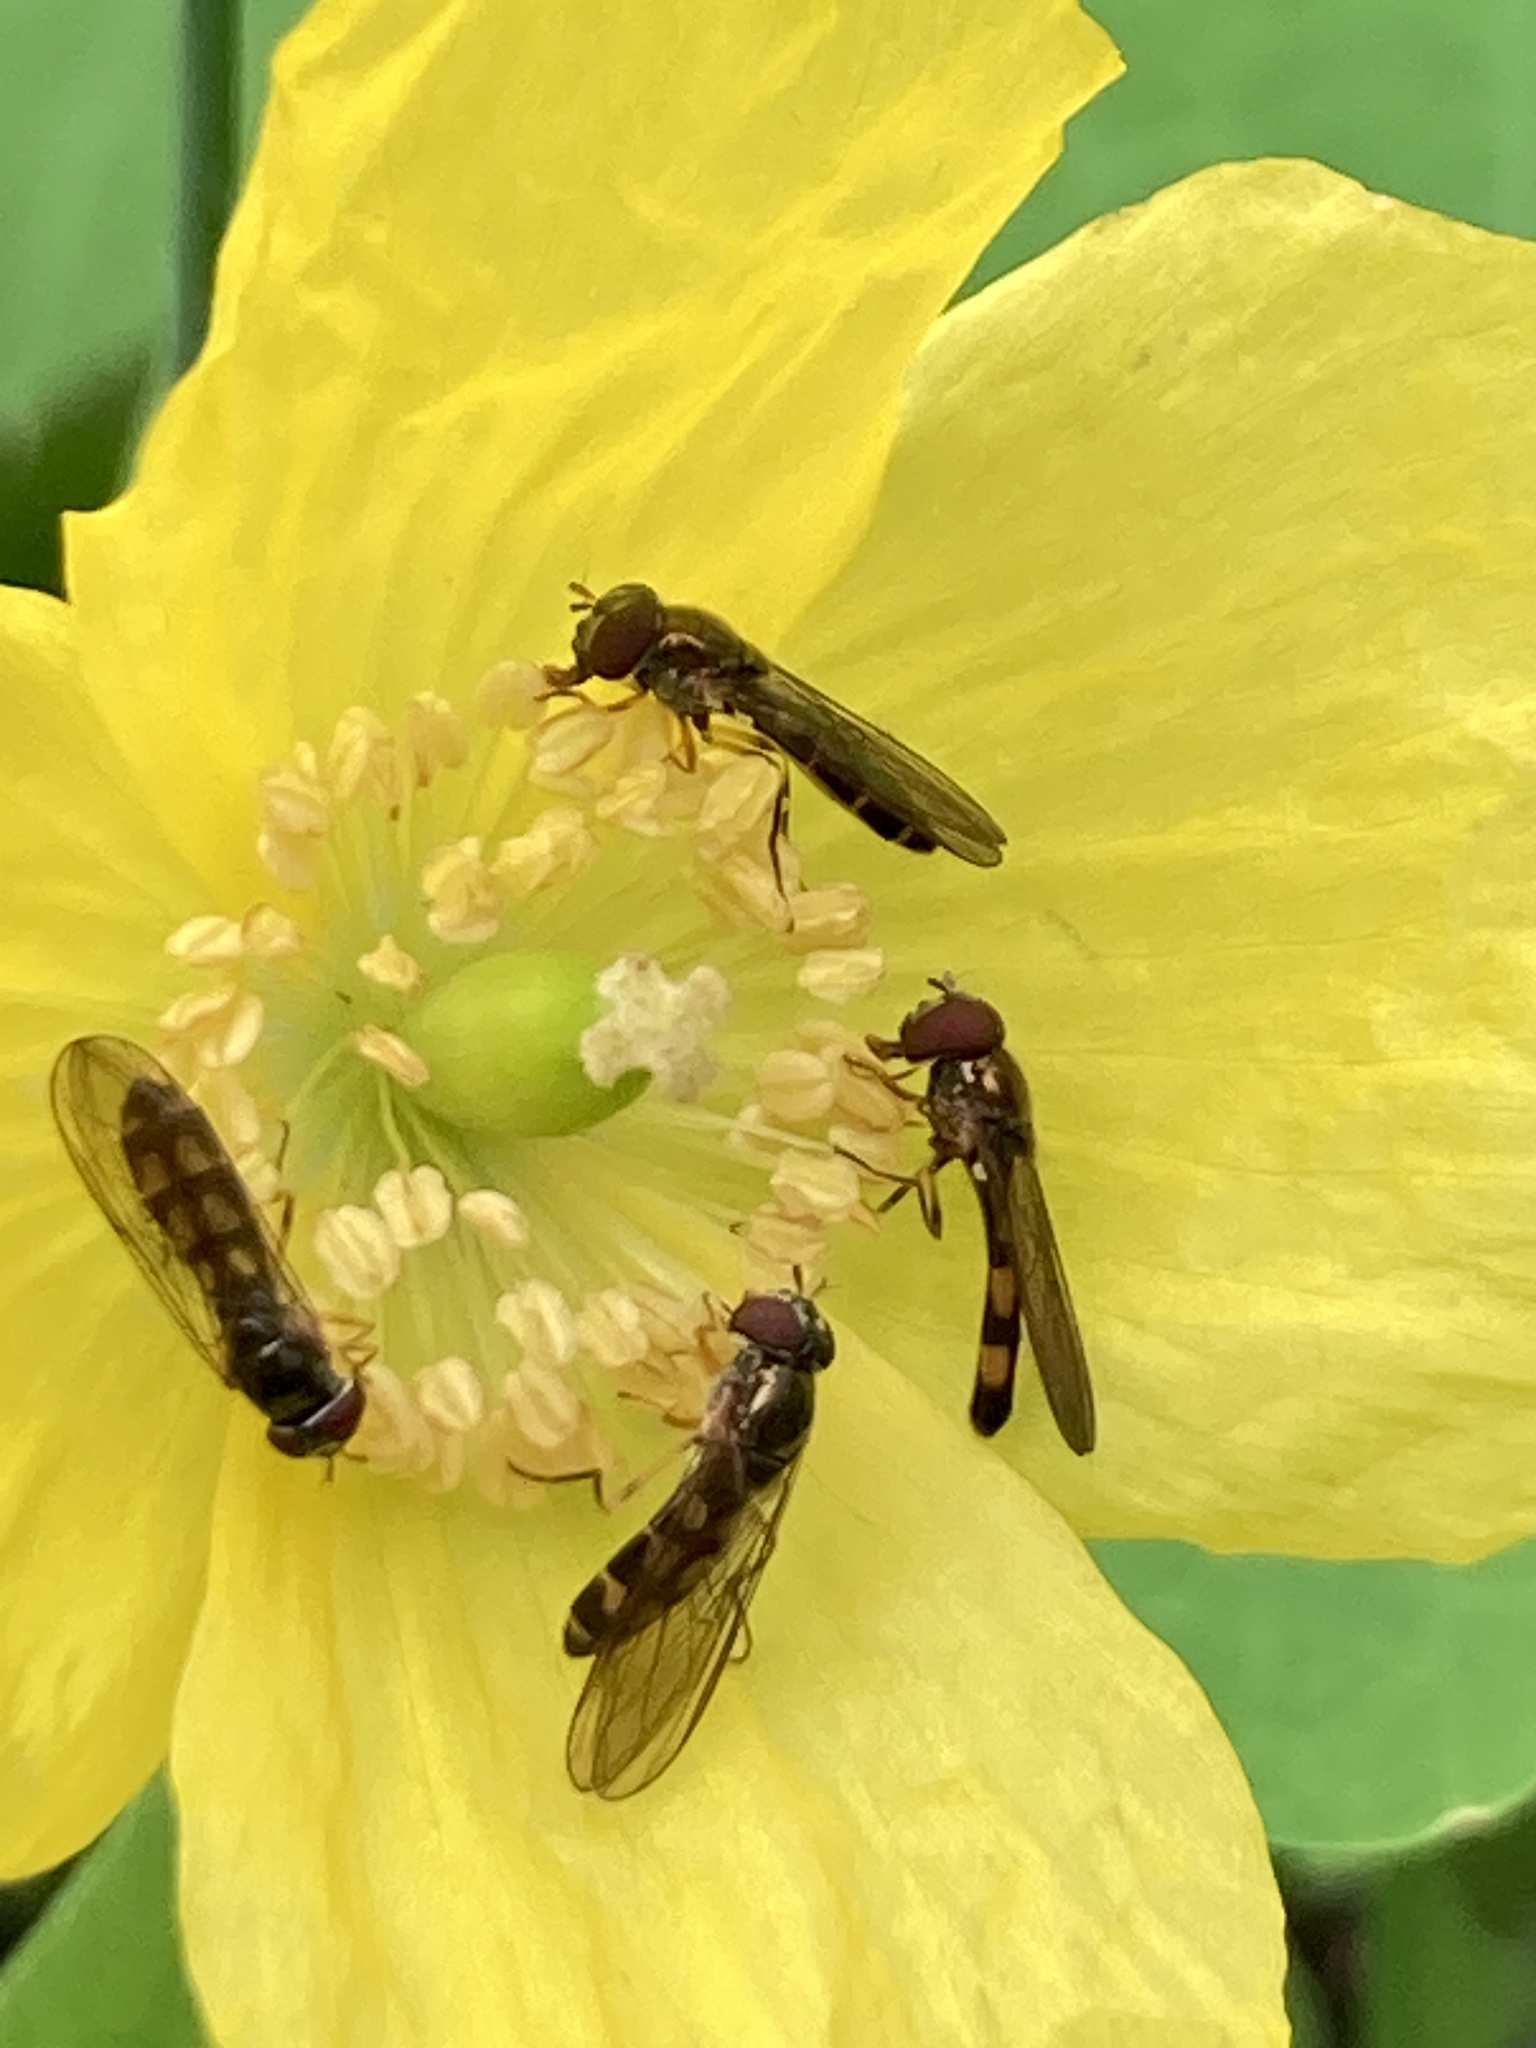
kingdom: Animalia
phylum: Arthropoda
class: Insecta
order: Diptera
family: Syrphidae
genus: Melanostoma
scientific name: Melanostoma scalare
